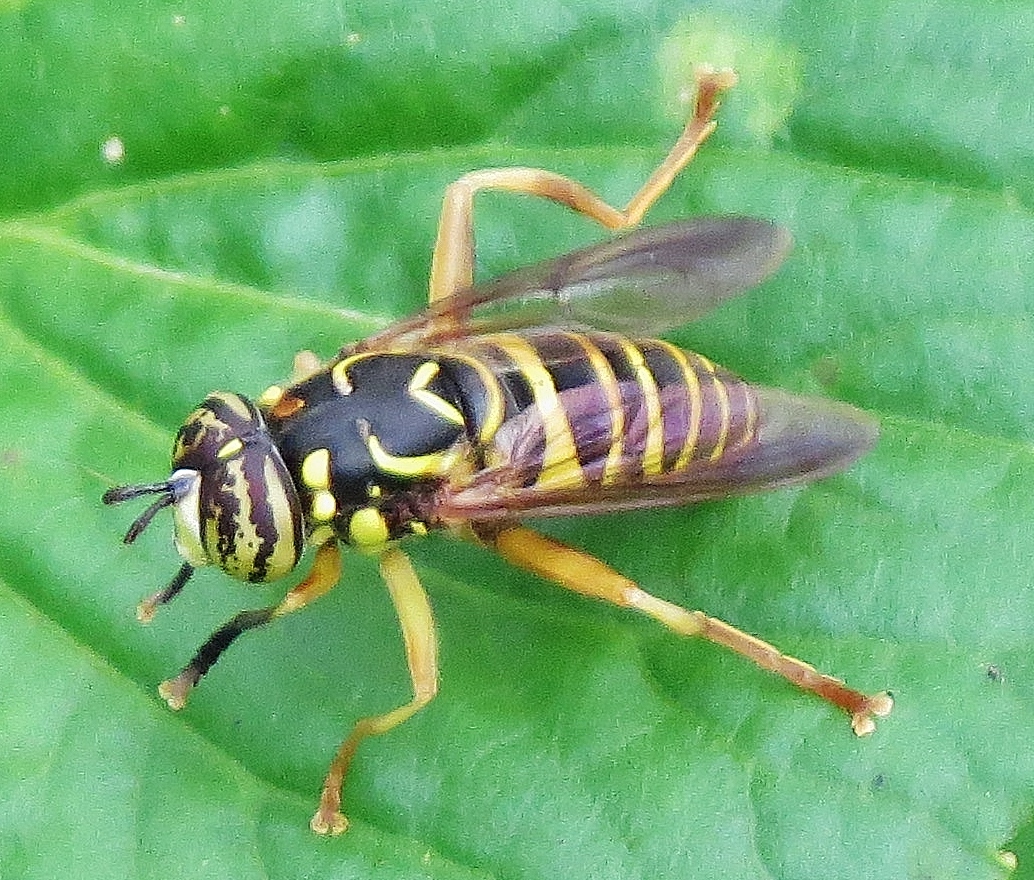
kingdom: Animalia
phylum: Arthropoda
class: Insecta
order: Diptera
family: Syrphidae
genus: Spilomyia
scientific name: Spilomyia longicornis
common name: Eastern hornet fly
